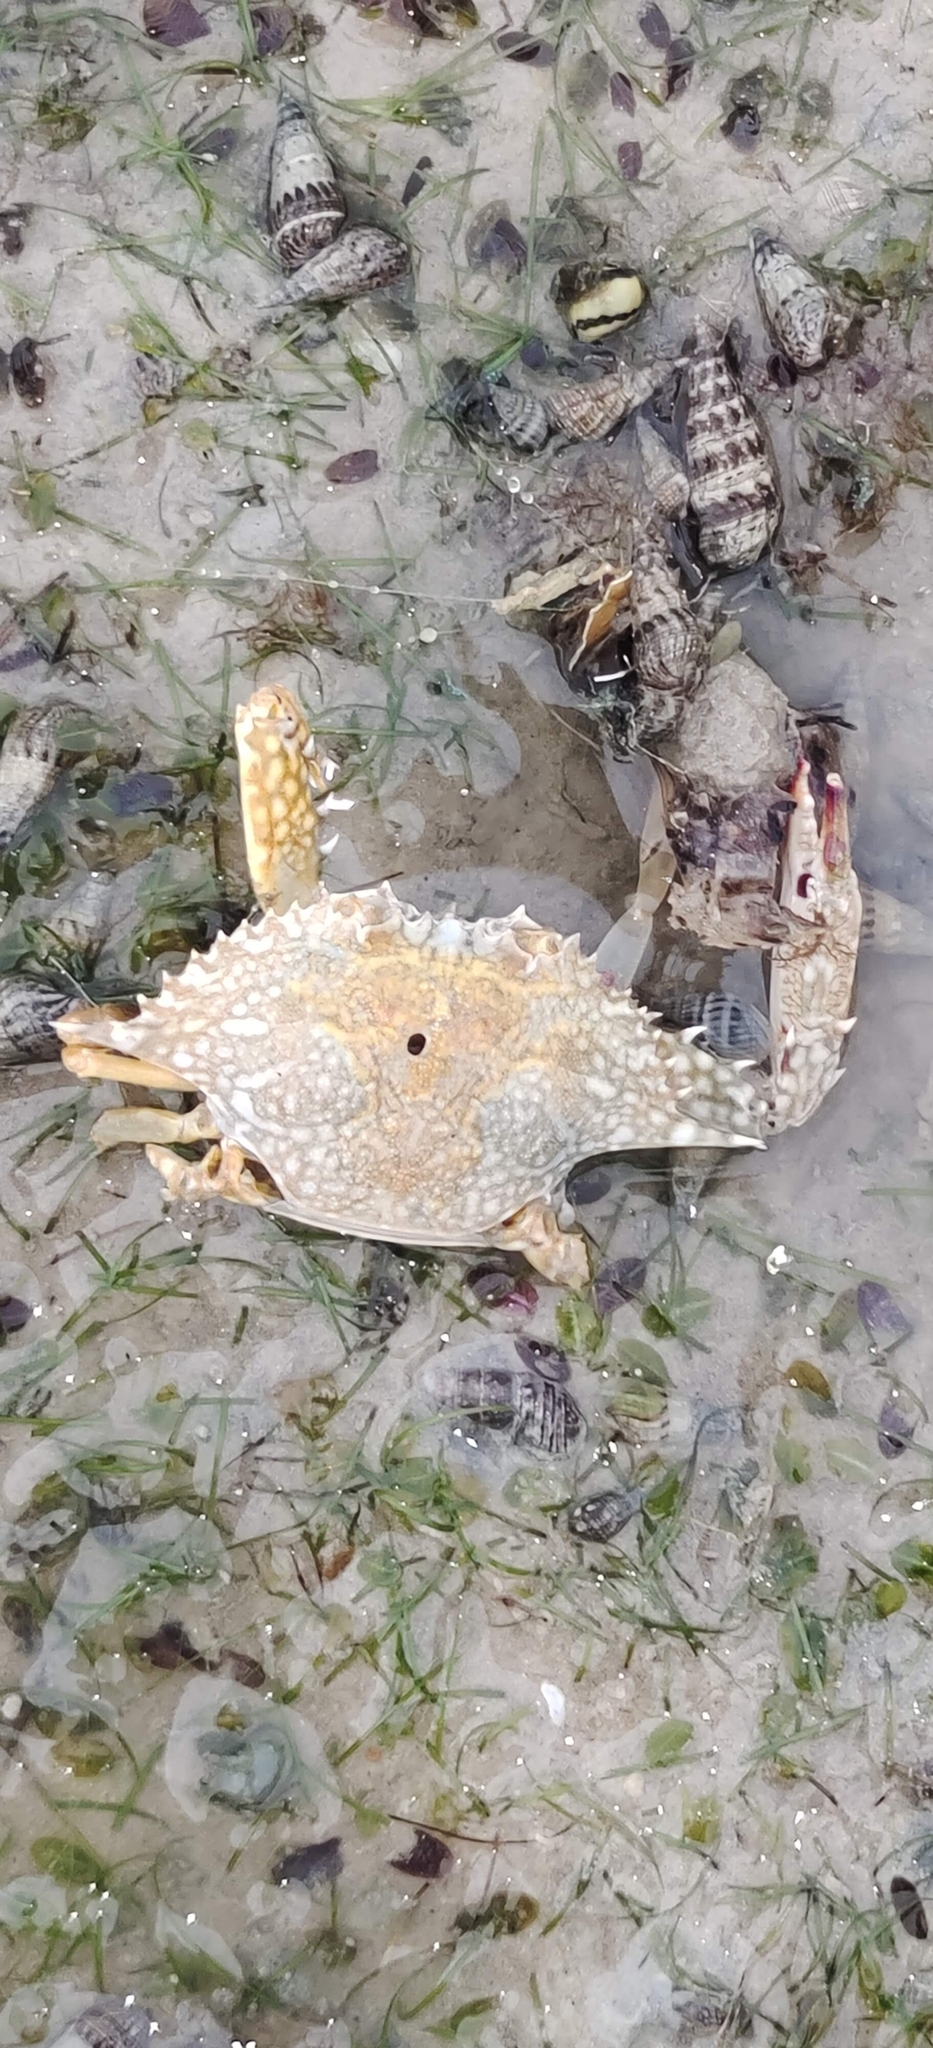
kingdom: Animalia
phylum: Arthropoda
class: Malacostraca
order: Decapoda
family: Portunidae
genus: Portunus
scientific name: Portunus pelagicus
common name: Blue swimming crab
